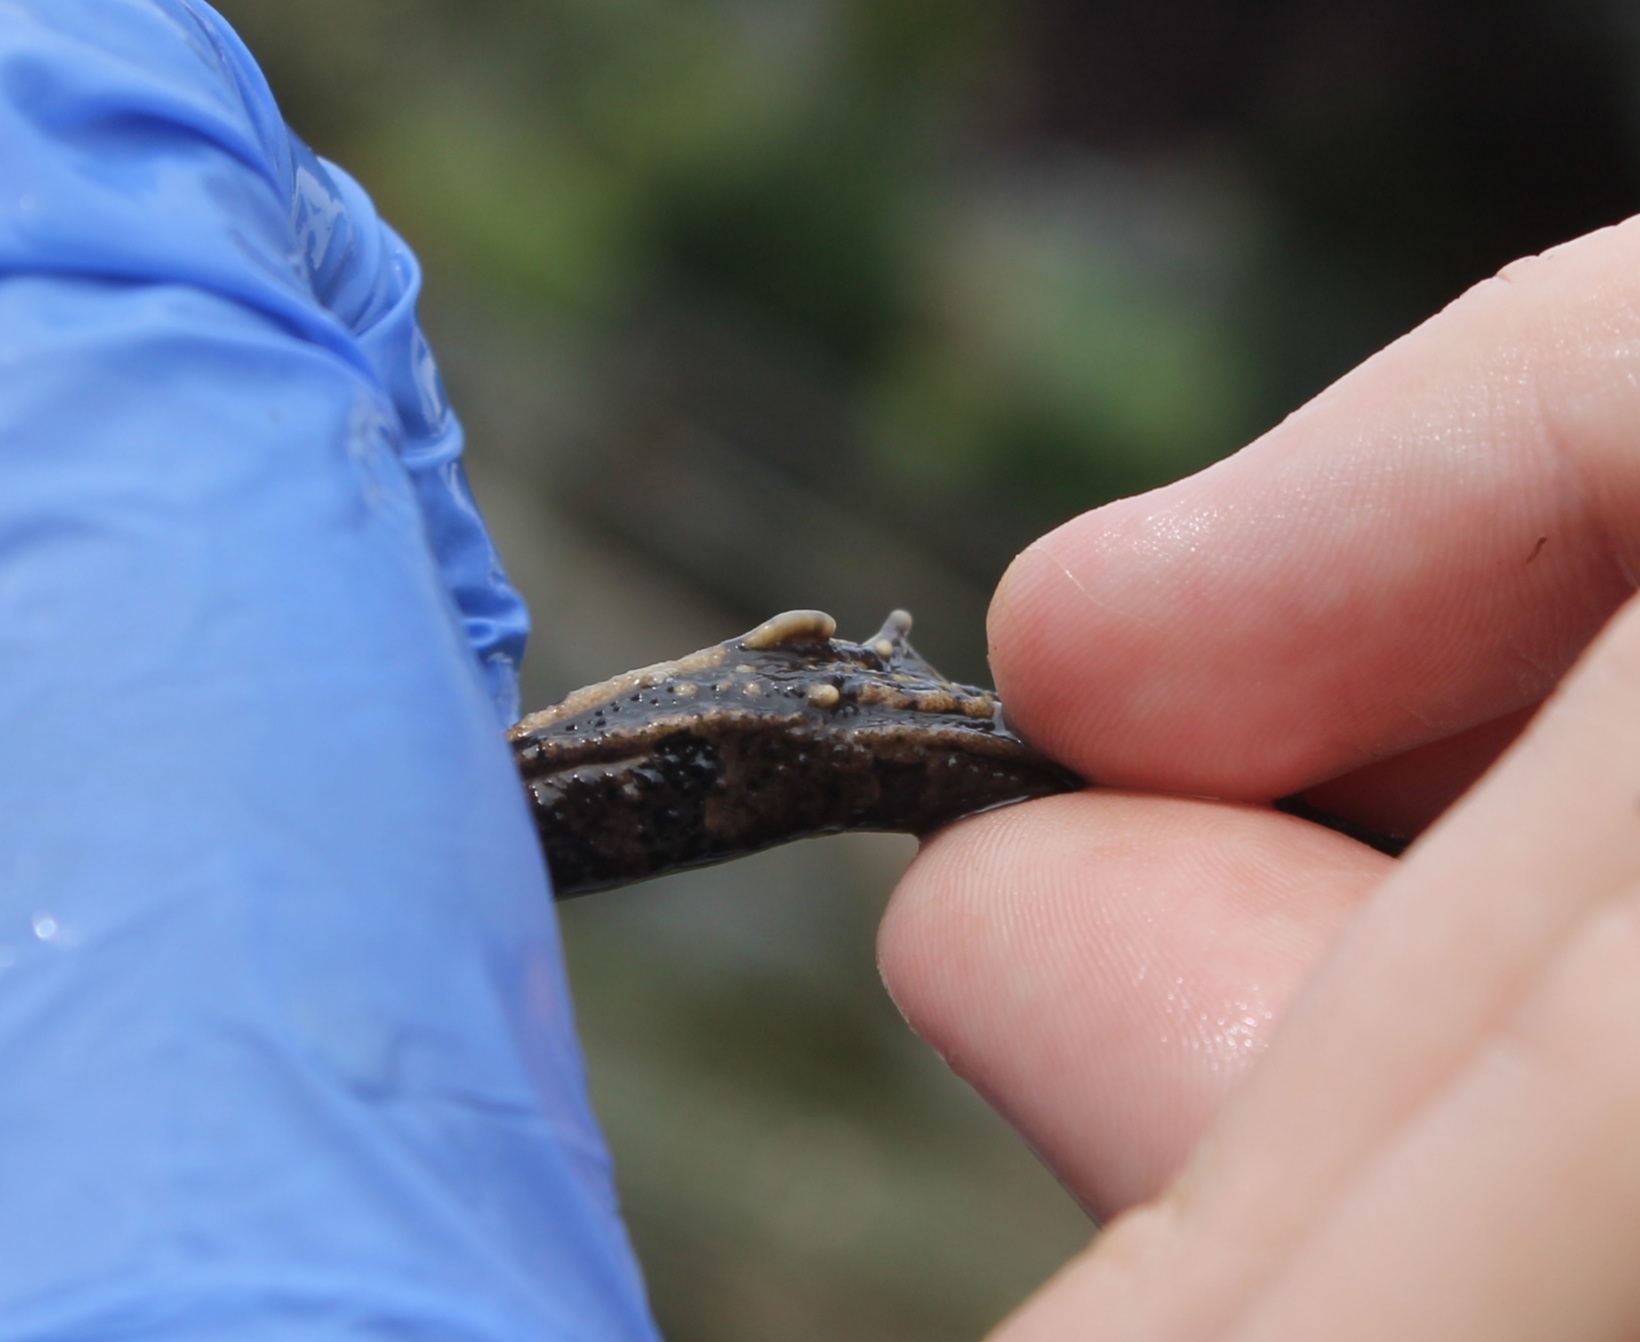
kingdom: Animalia
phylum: Chordata
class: Amphibia
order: Anura
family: Ranidae
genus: Pelophylax
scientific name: Pelophylax lessonae
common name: Pool frog
